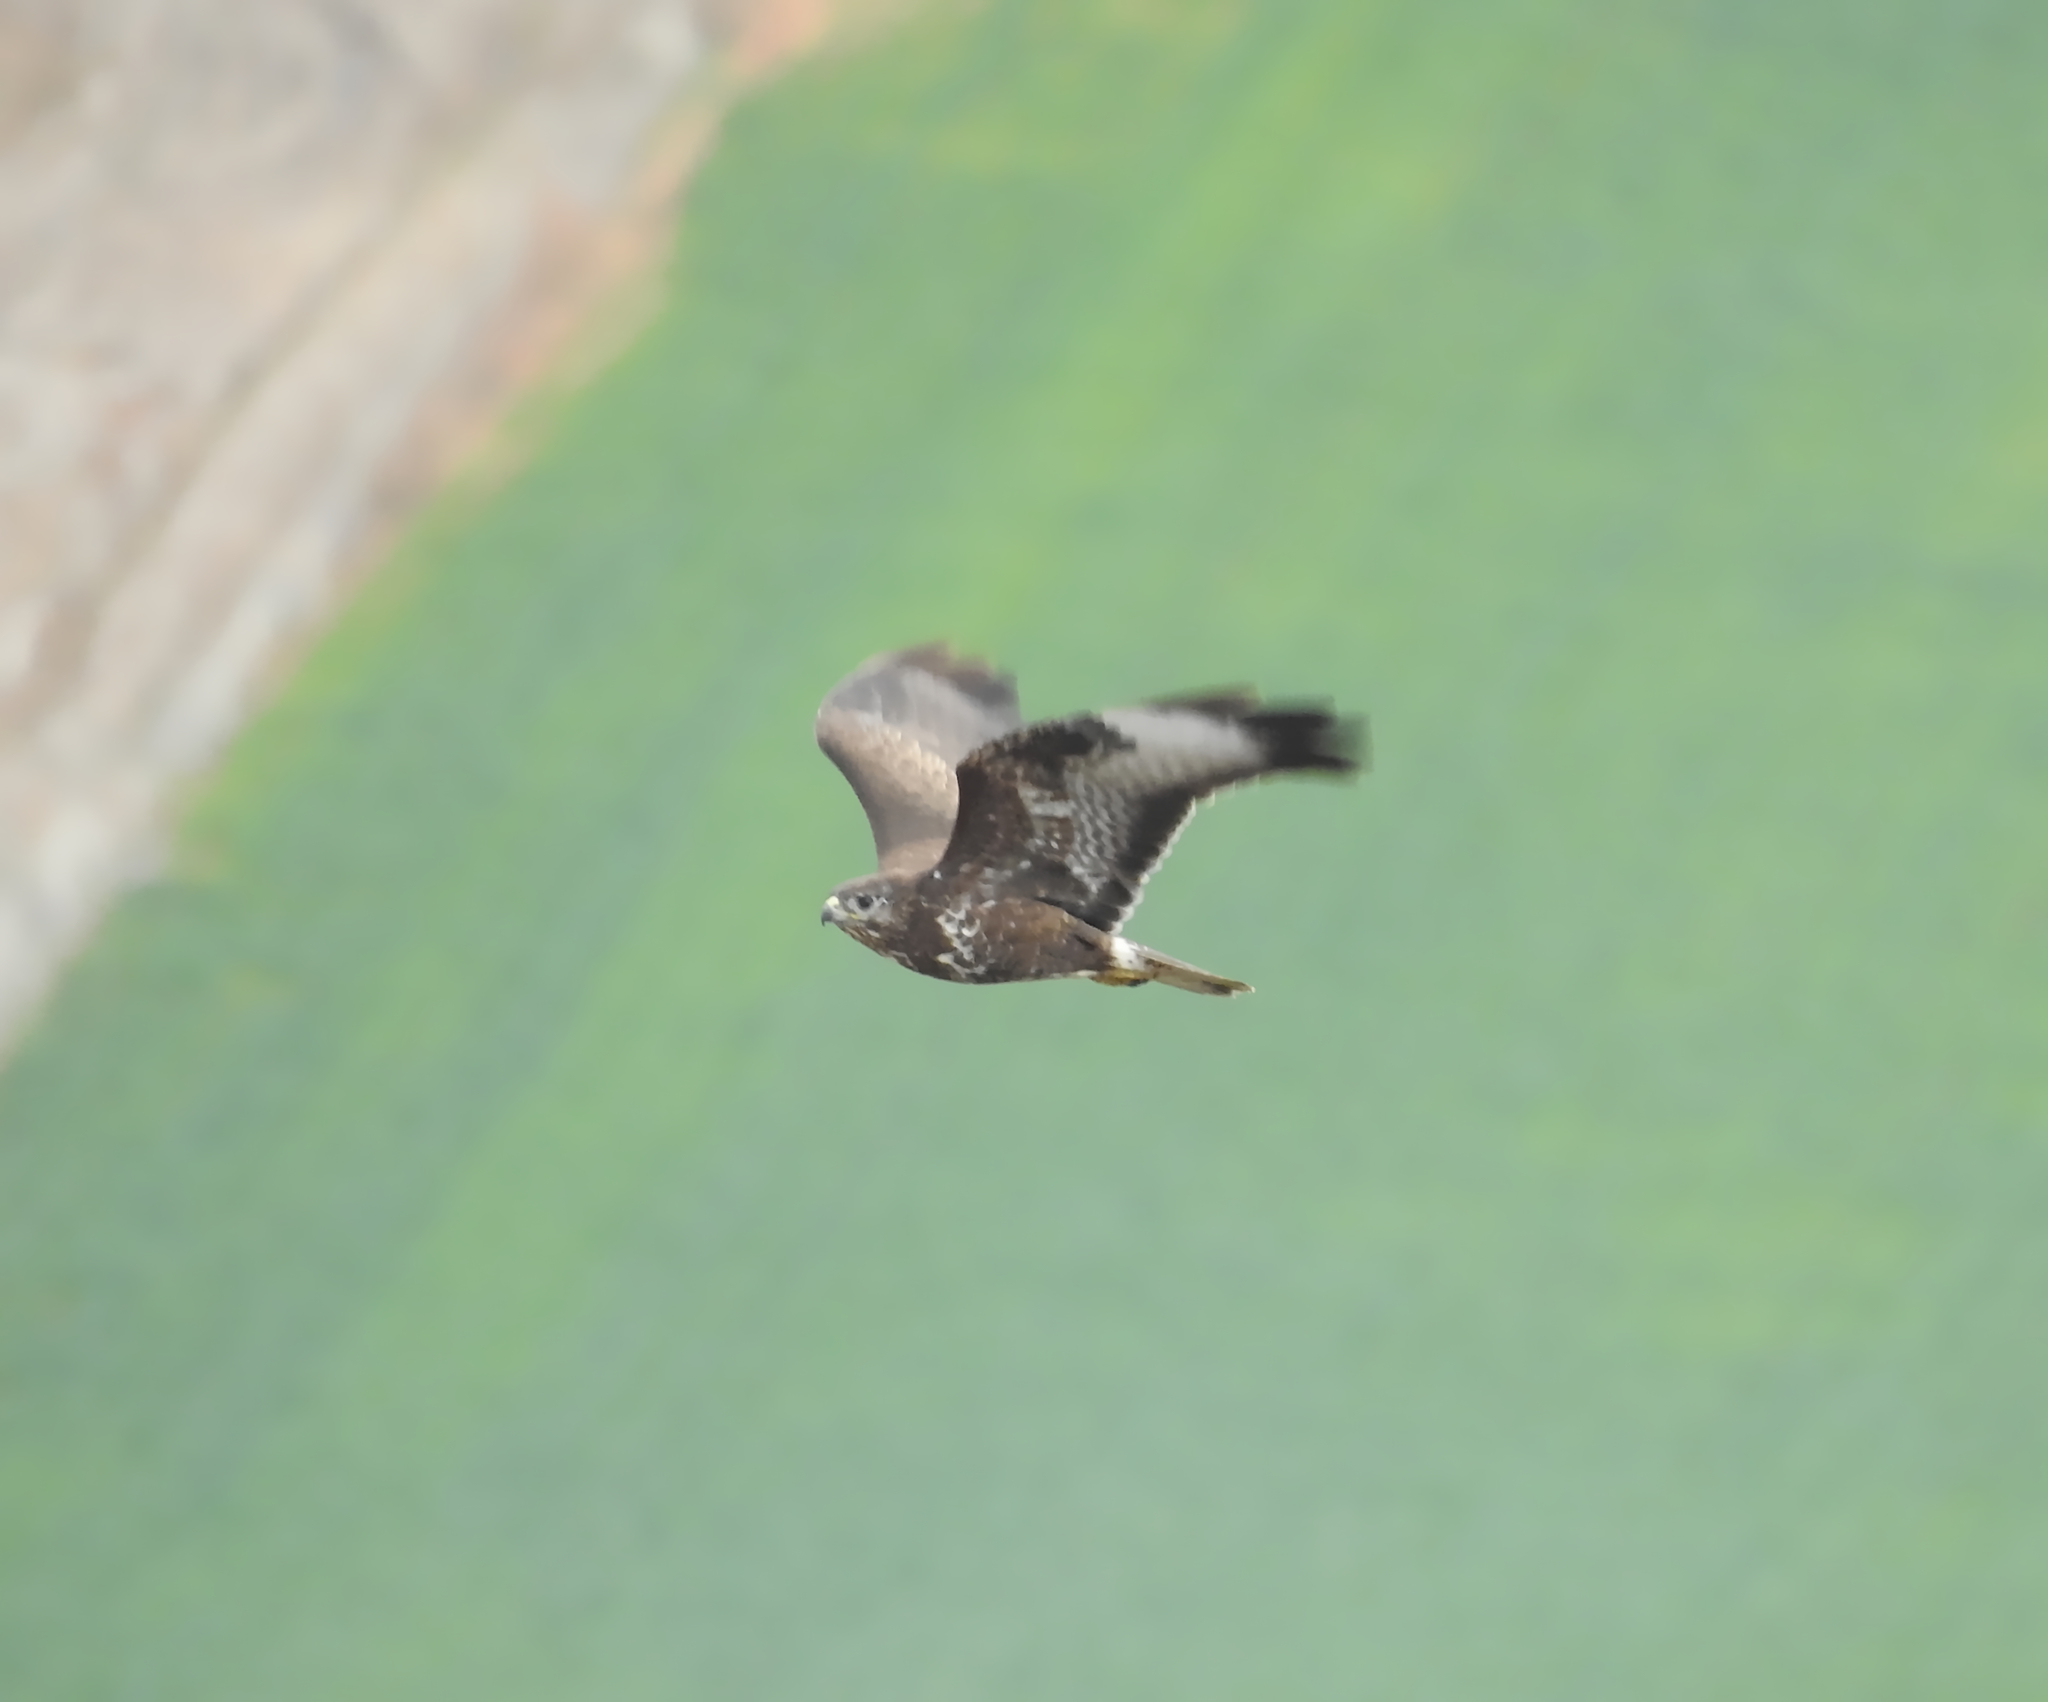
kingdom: Animalia
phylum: Chordata
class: Aves
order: Accipitriformes
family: Accipitridae
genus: Buteo
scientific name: Buteo buteo
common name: Common buzzard
